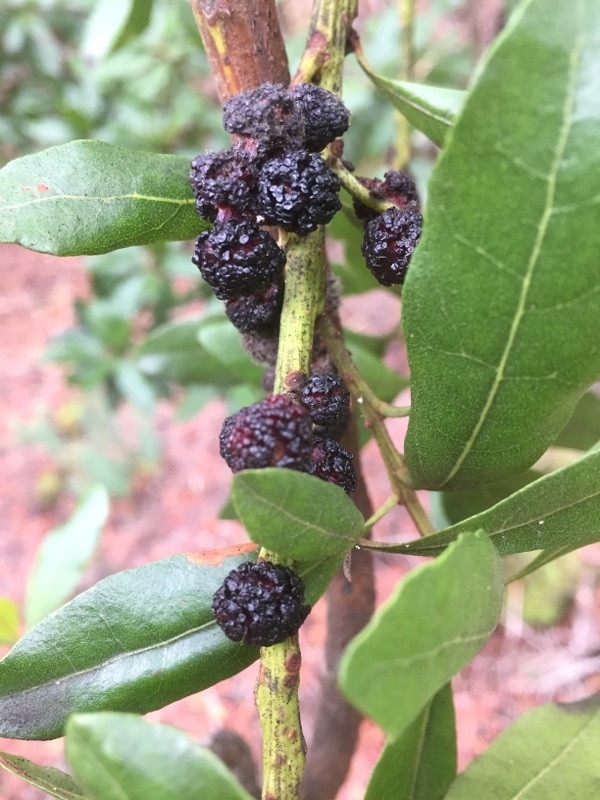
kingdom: Plantae
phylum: Tracheophyta
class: Magnoliopsida
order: Fagales
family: Myricaceae
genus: Morella
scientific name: Morella faya
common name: Firetree
